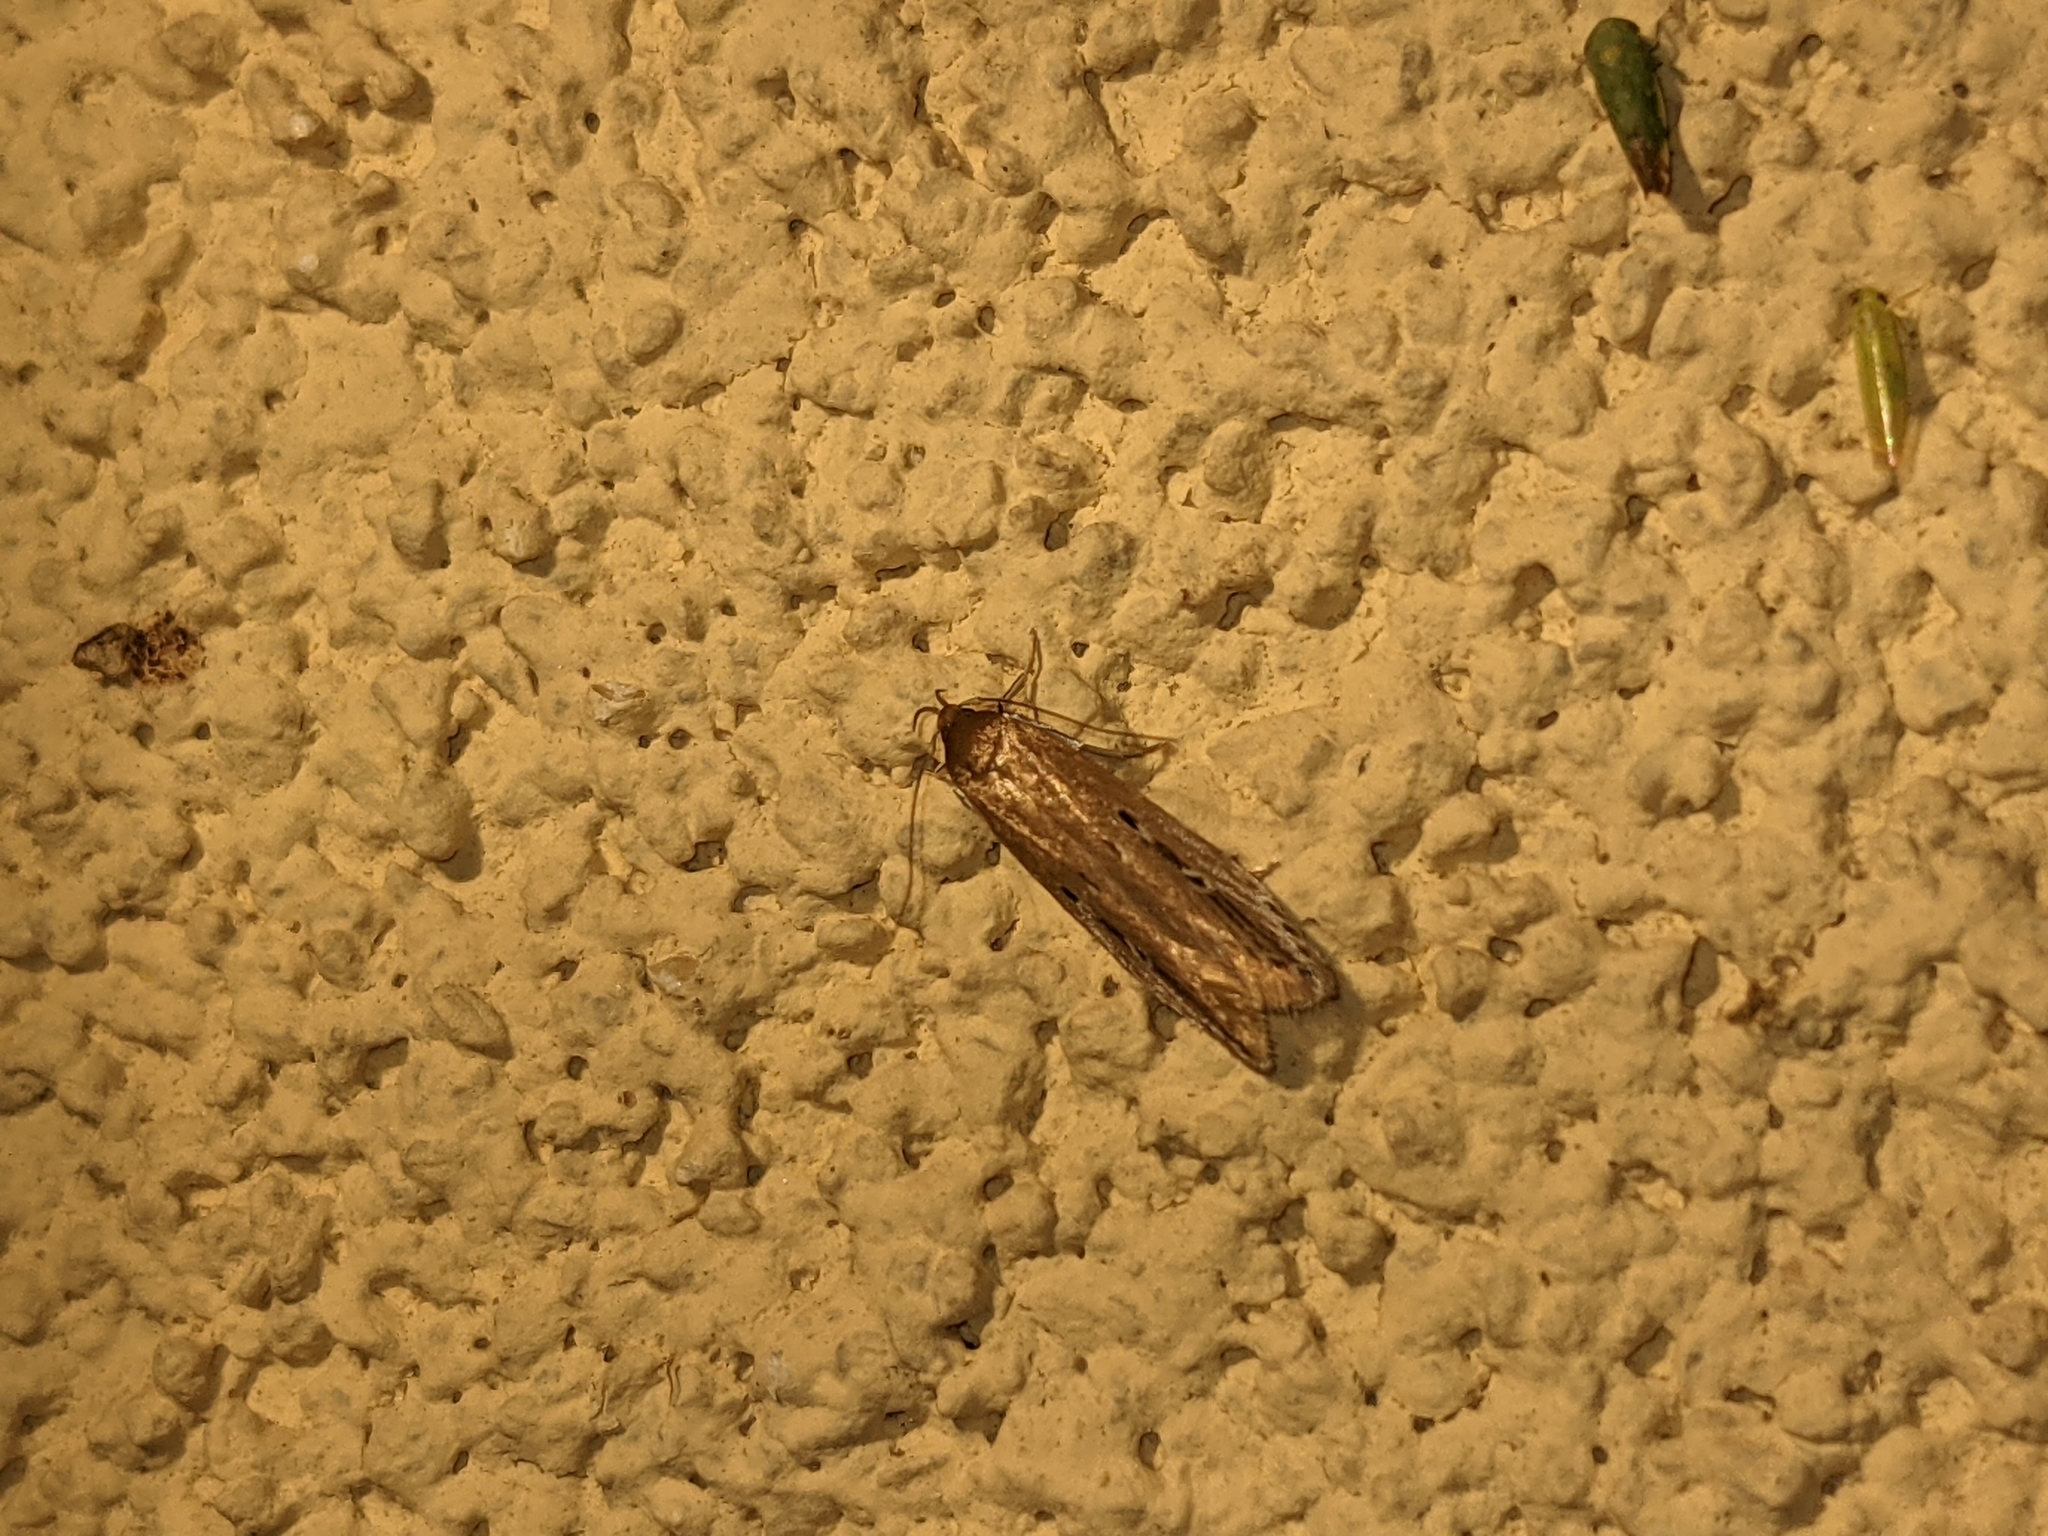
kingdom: Animalia
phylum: Arthropoda
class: Insecta
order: Lepidoptera
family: Cosmopterigidae
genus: Limnaecia
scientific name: Limnaecia phragmitella
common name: Bulrush cosmet
